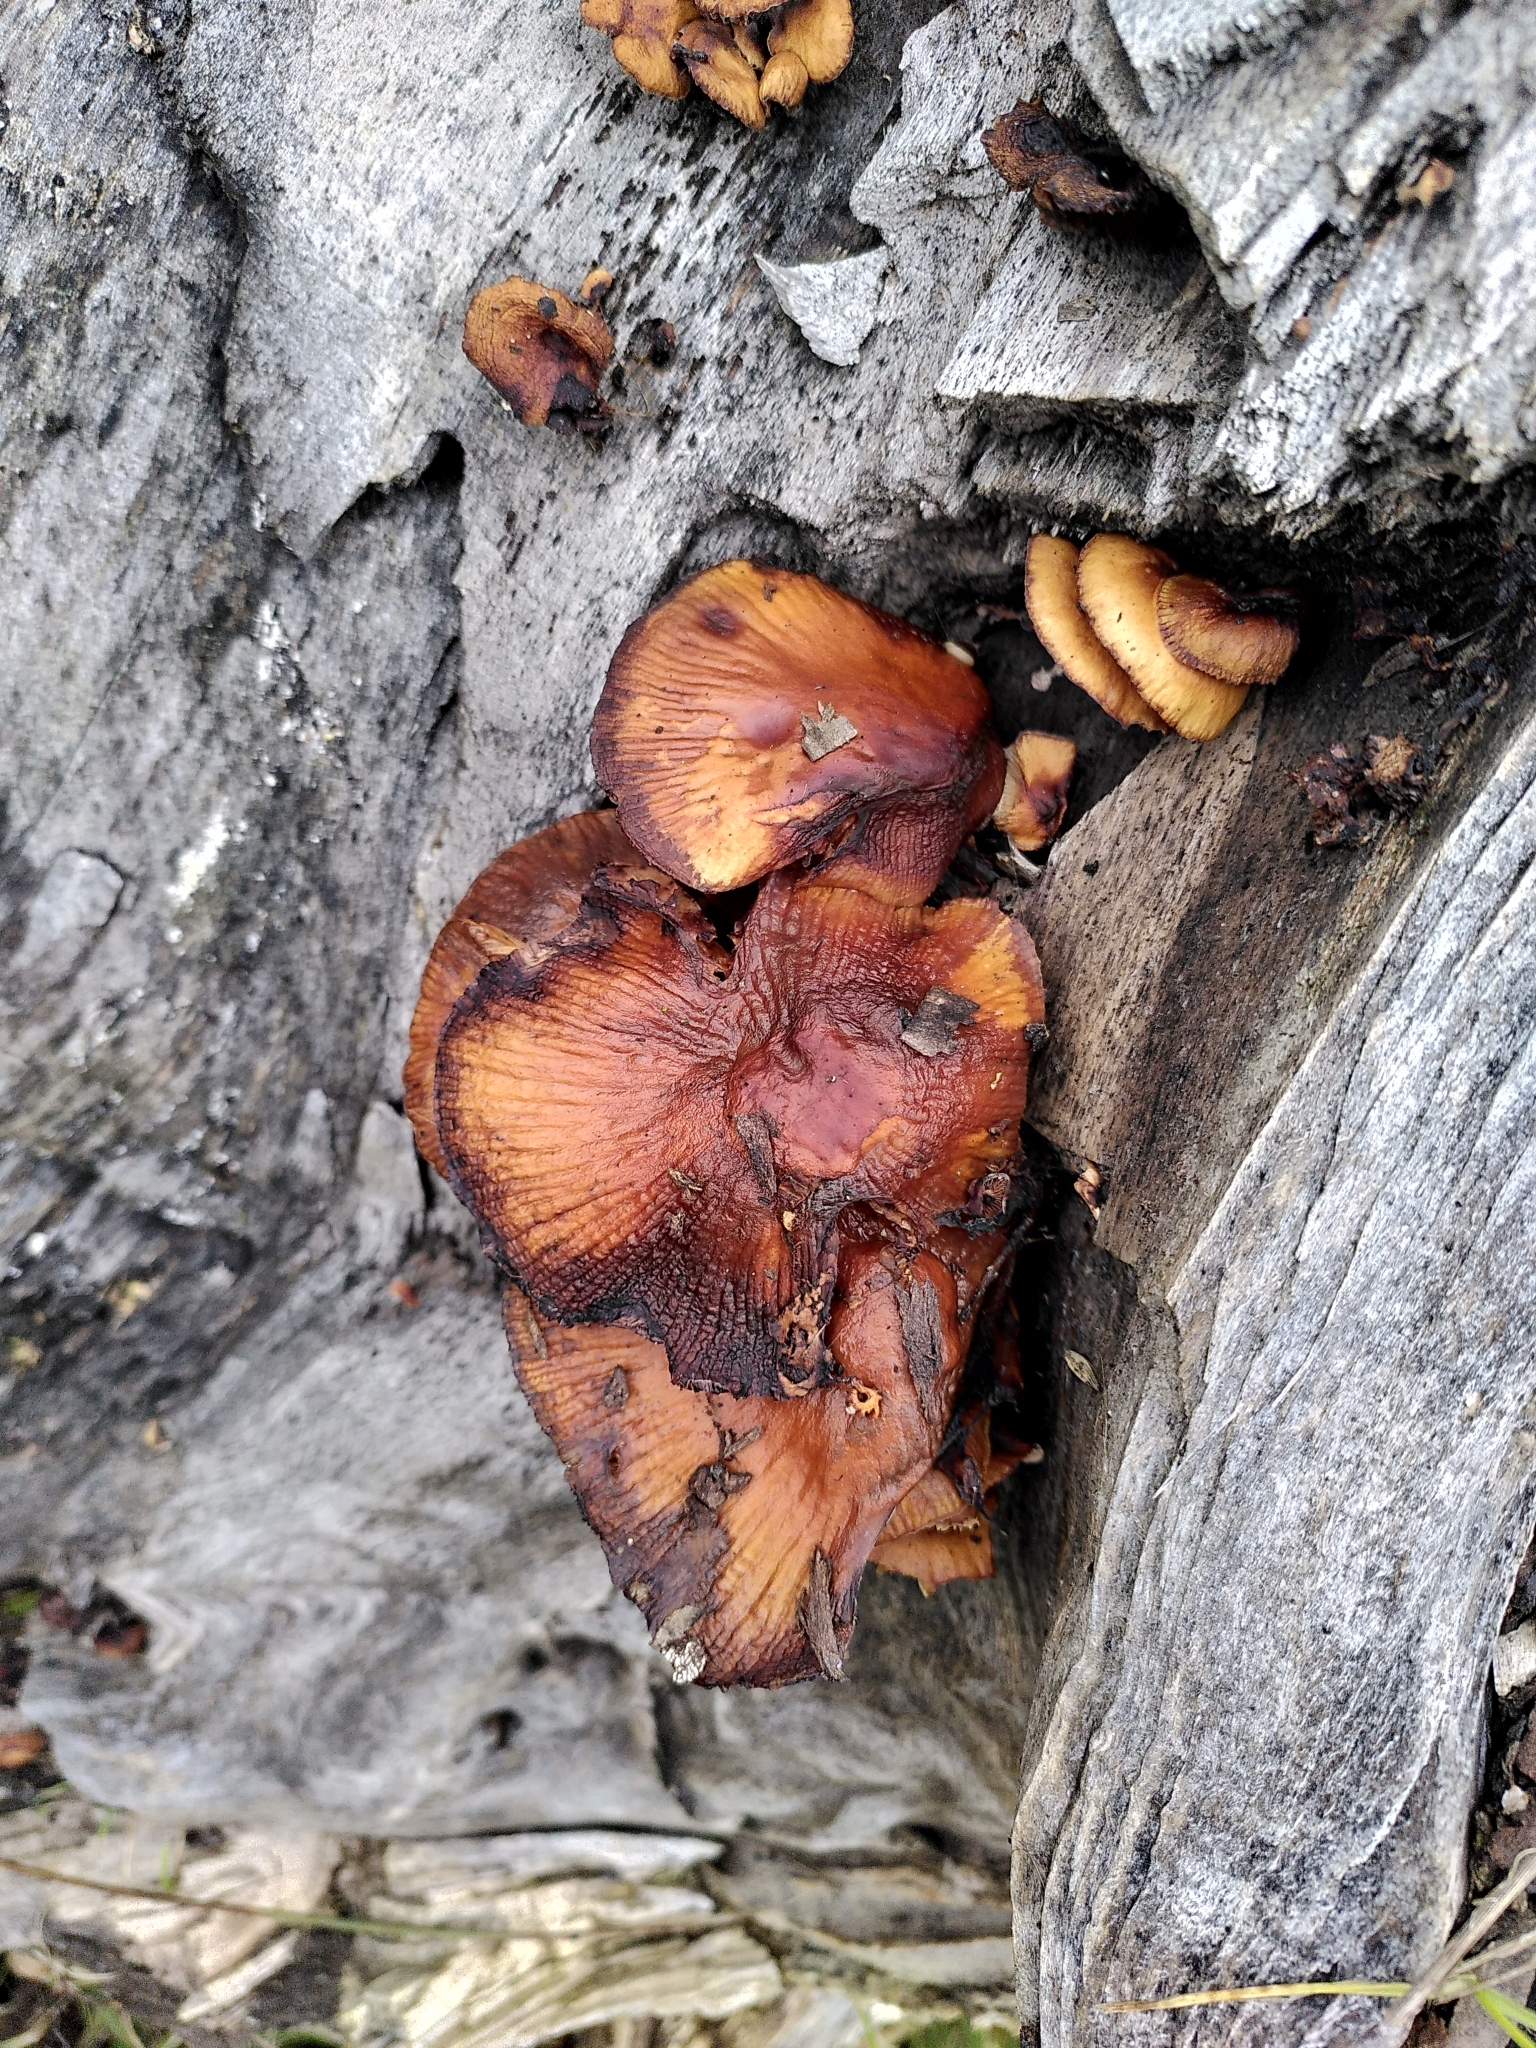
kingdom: Fungi
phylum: Basidiomycota
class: Agaricomycetes
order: Agaricales
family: Physalacriaceae
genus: Flammulina
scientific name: Flammulina
